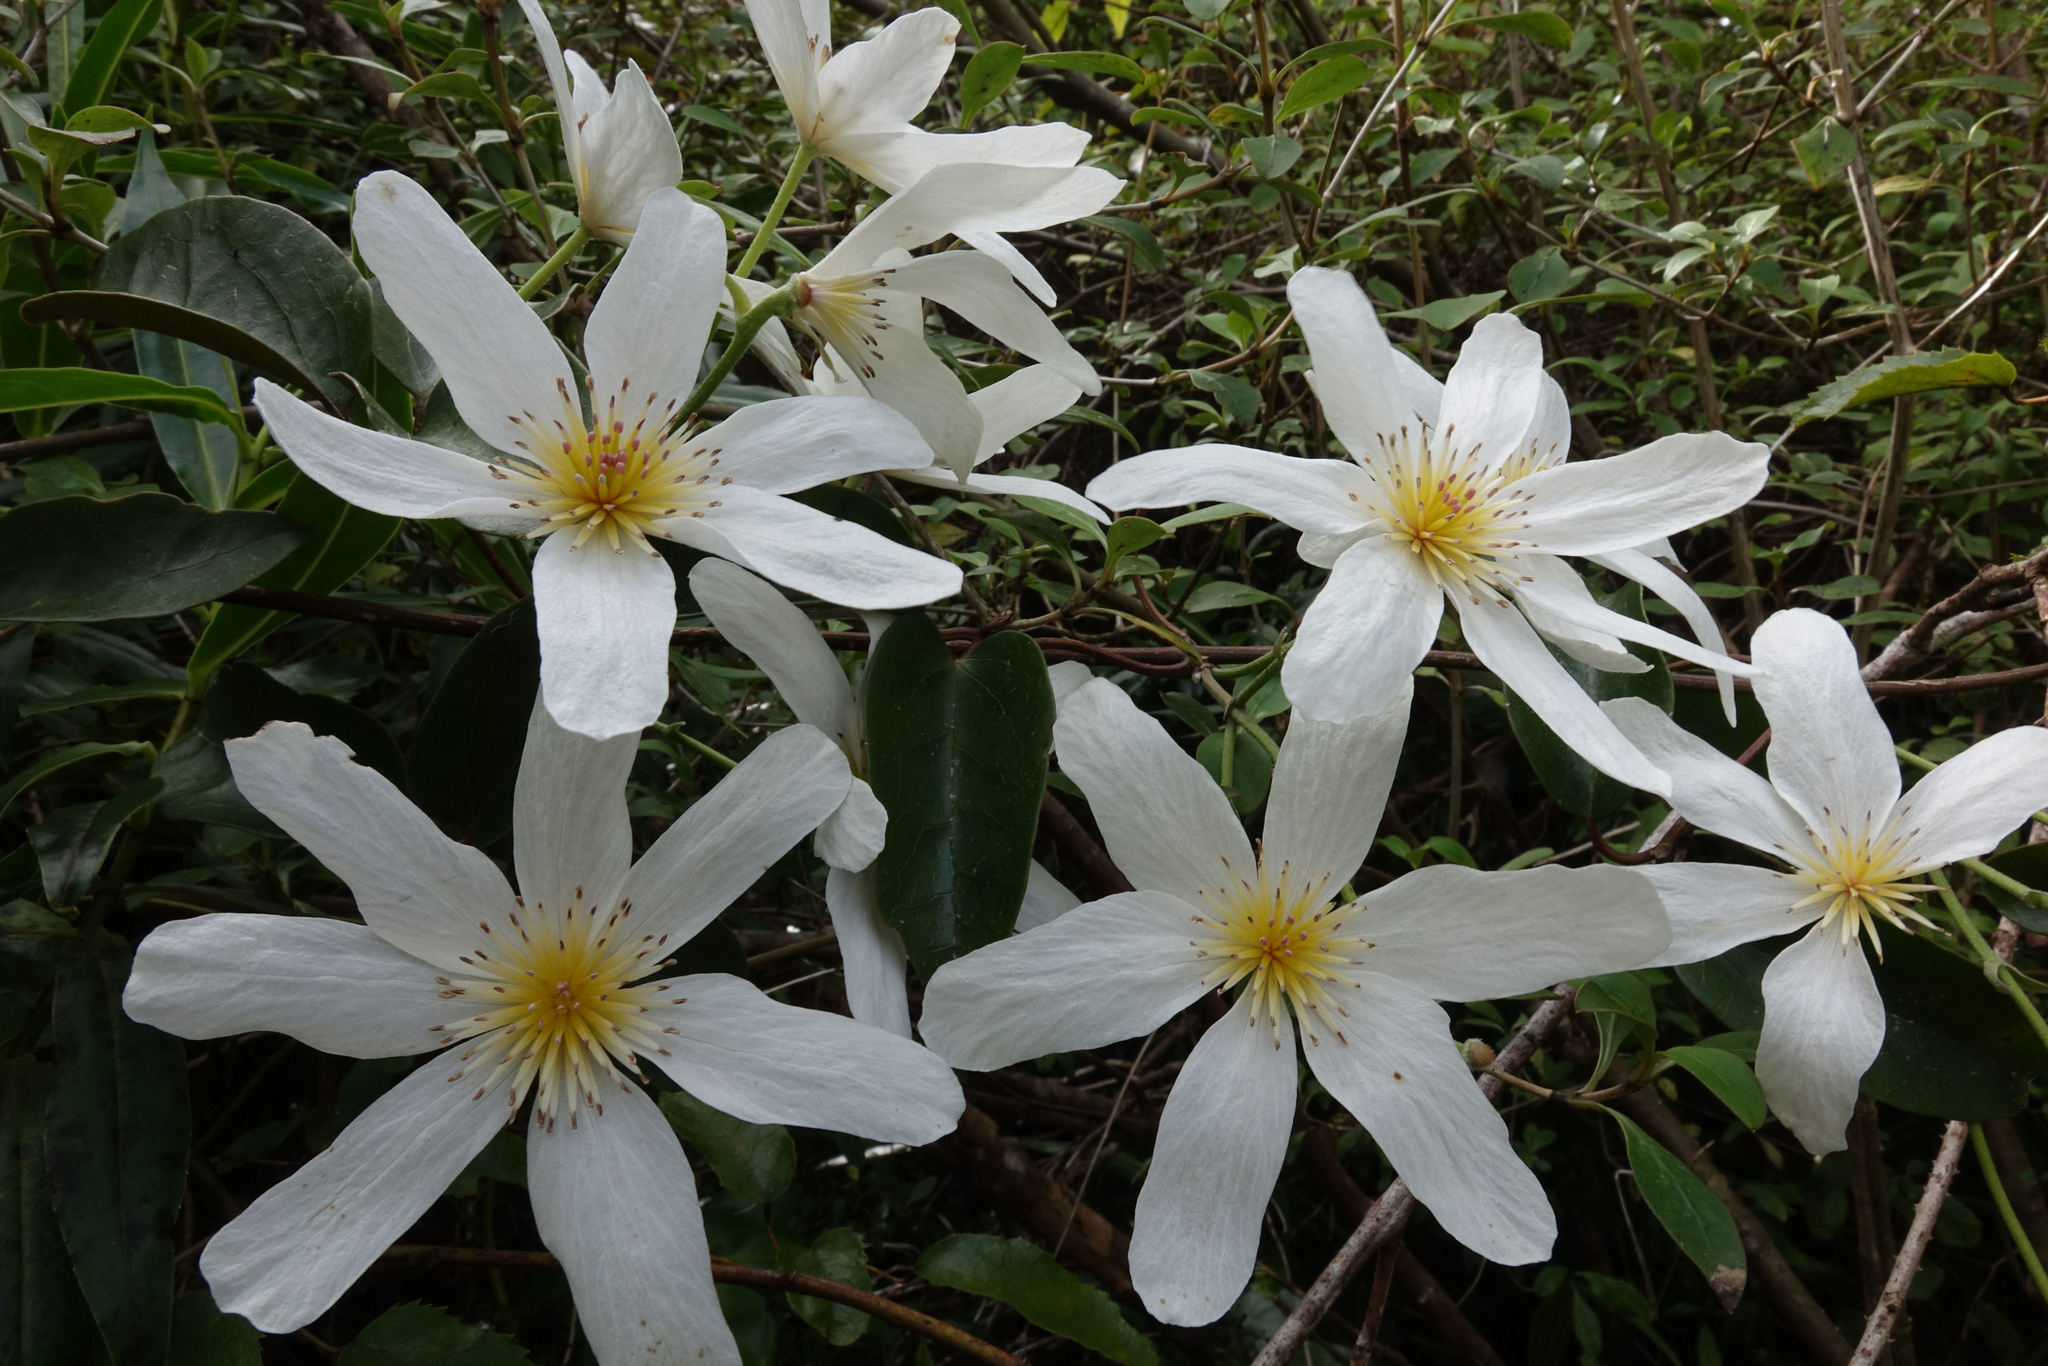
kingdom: Plantae
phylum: Tracheophyta
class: Magnoliopsida
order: Ranunculales
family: Ranunculaceae
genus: Clematis
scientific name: Clematis paniculata
